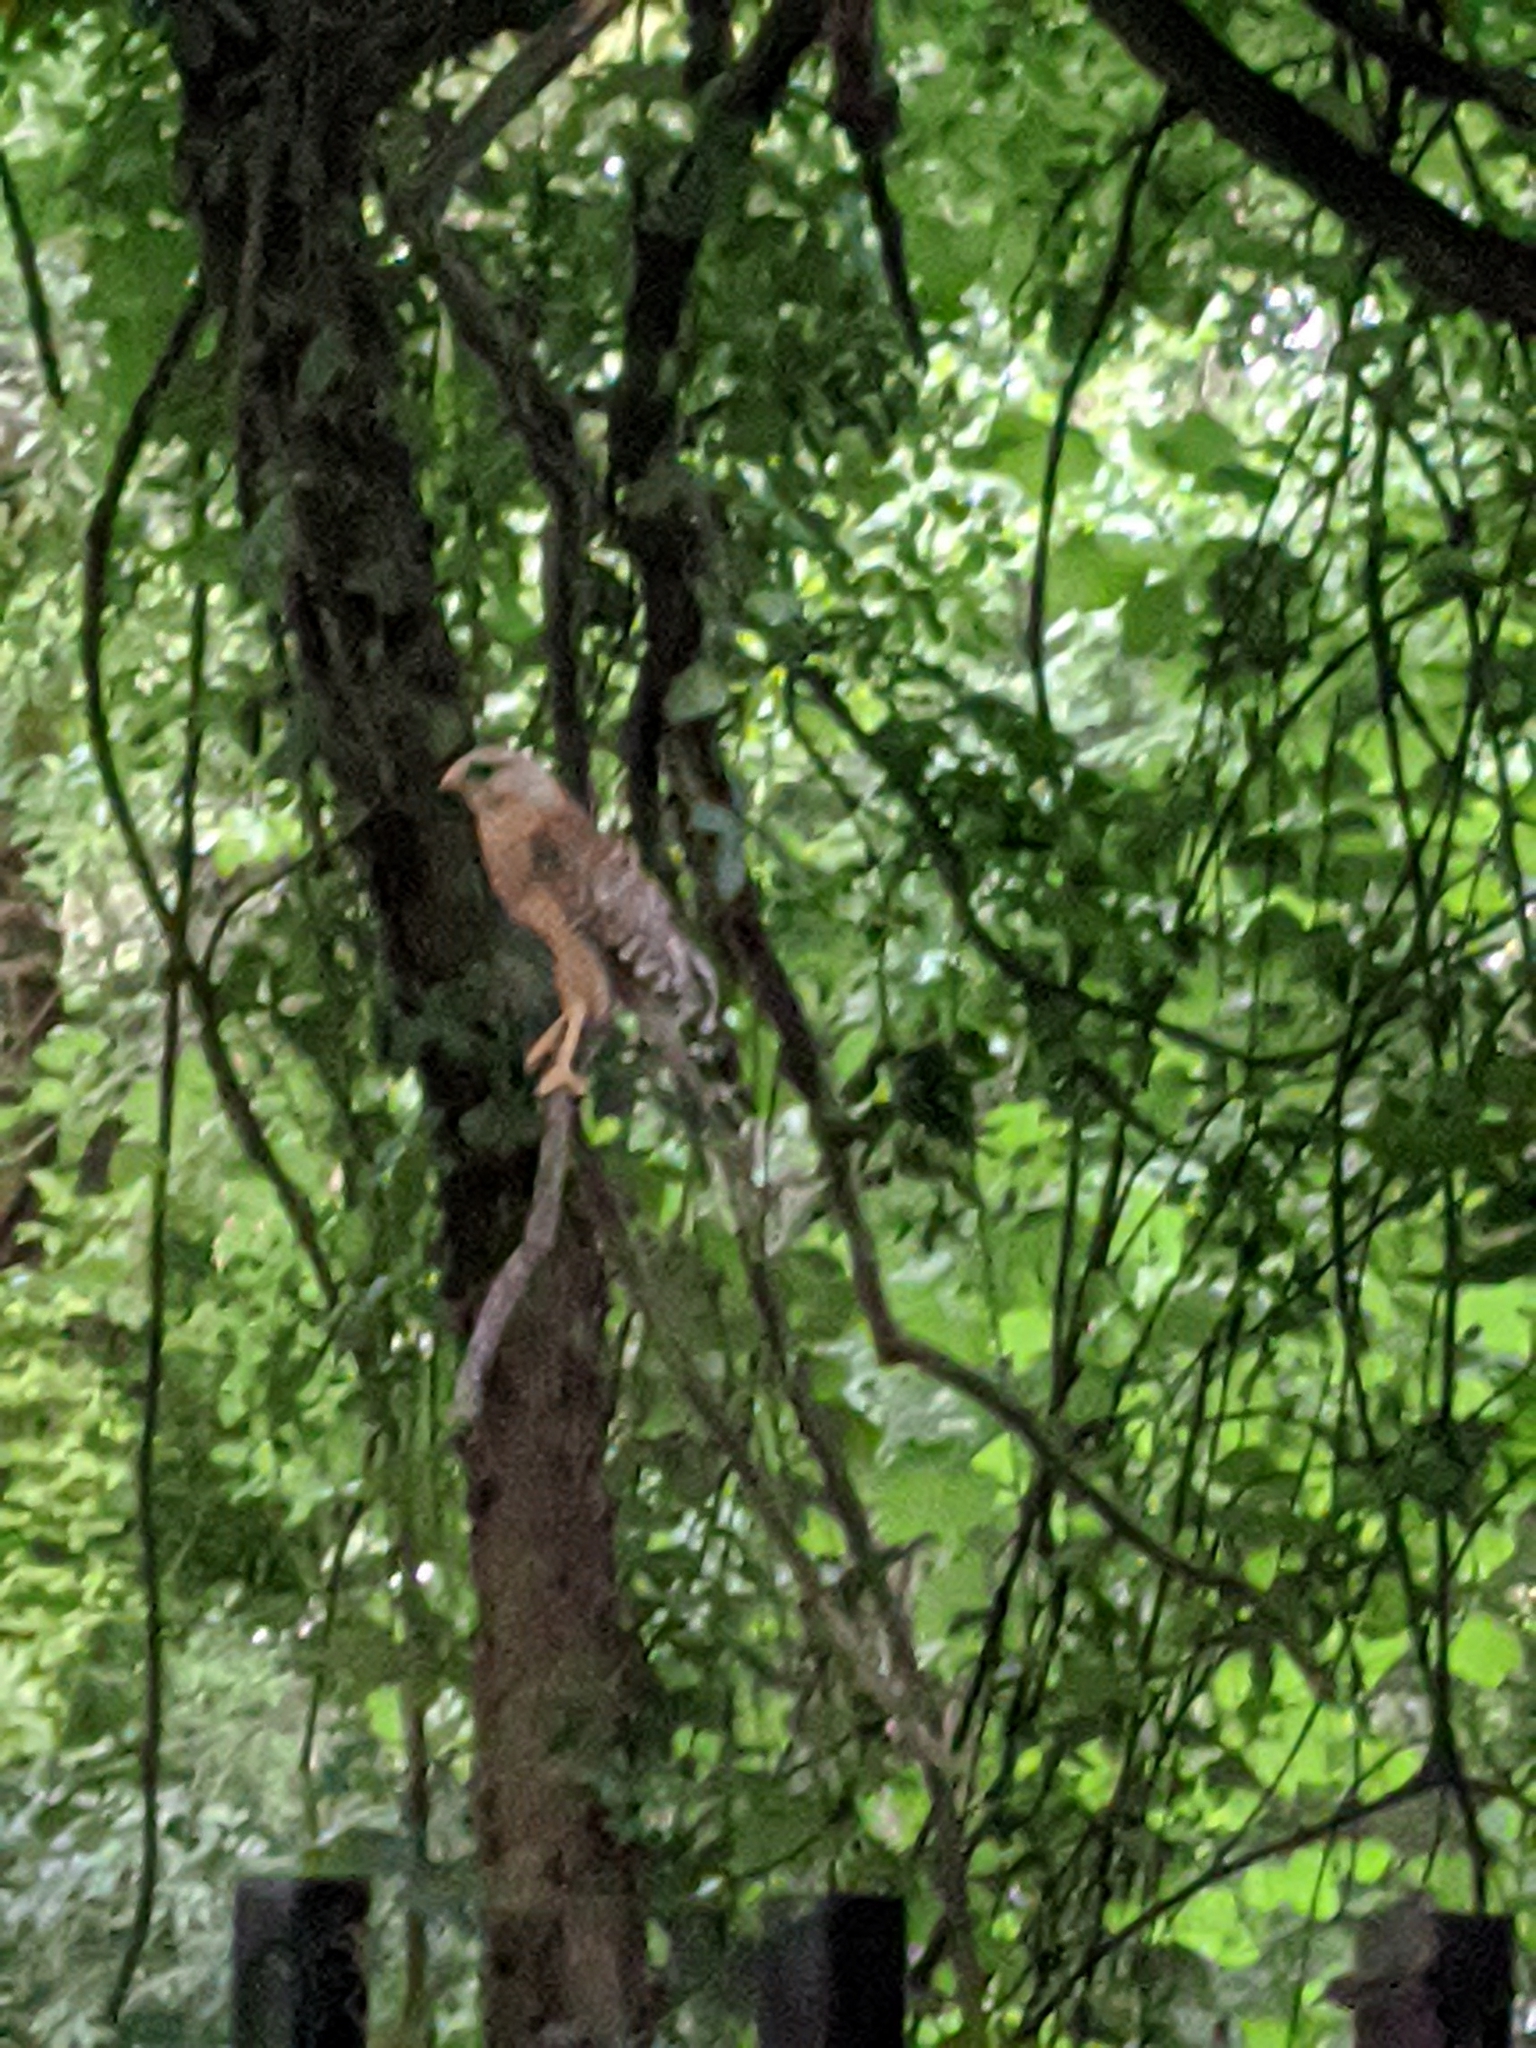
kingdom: Animalia
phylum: Chordata
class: Aves
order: Accipitriformes
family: Accipitridae
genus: Buteo
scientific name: Buteo lineatus
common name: Red-shouldered hawk
